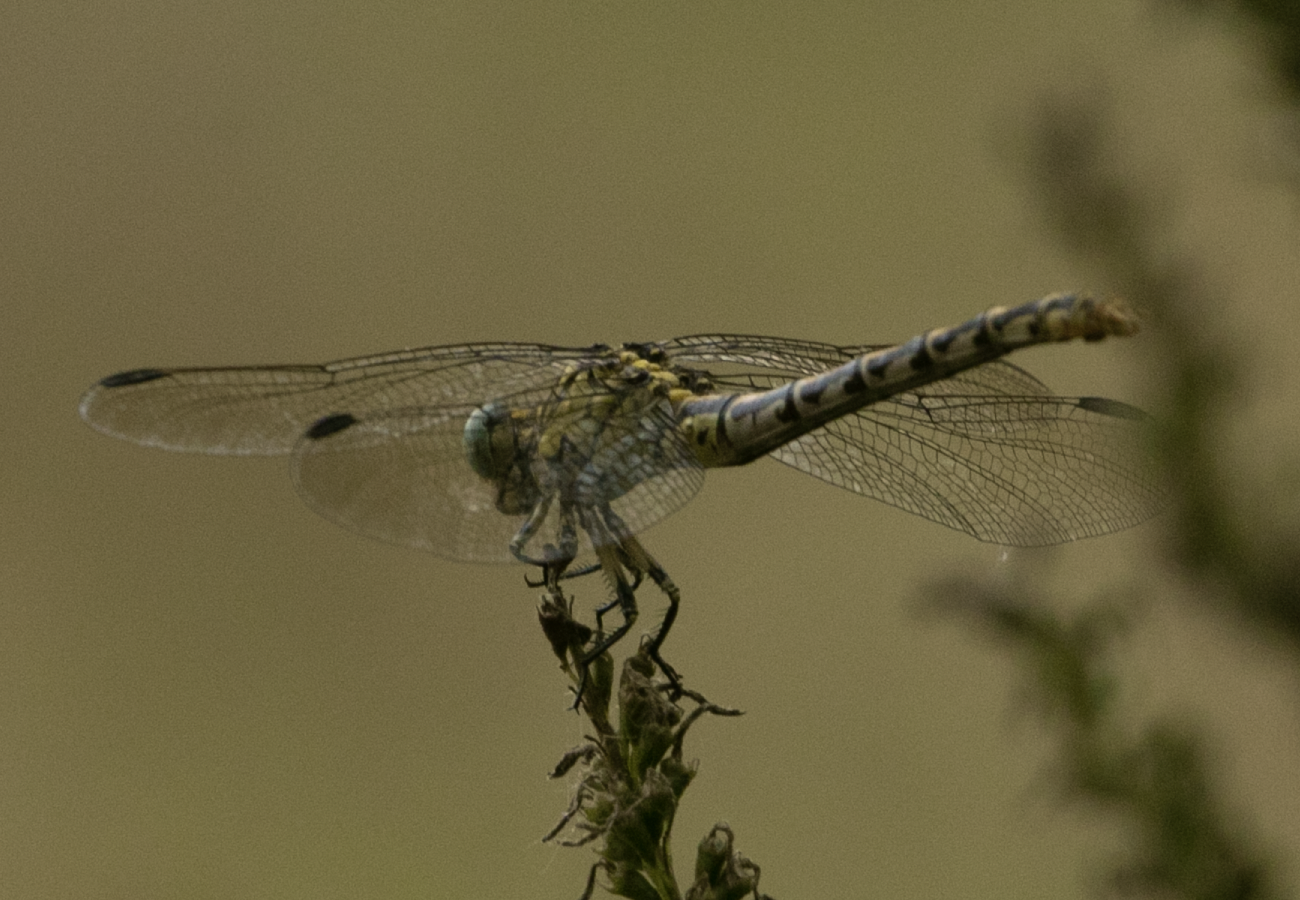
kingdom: Animalia
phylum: Arthropoda
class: Insecta
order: Odonata
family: Gomphidae
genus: Onychogomphus
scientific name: Onychogomphus forcipatus
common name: Small pincertail
